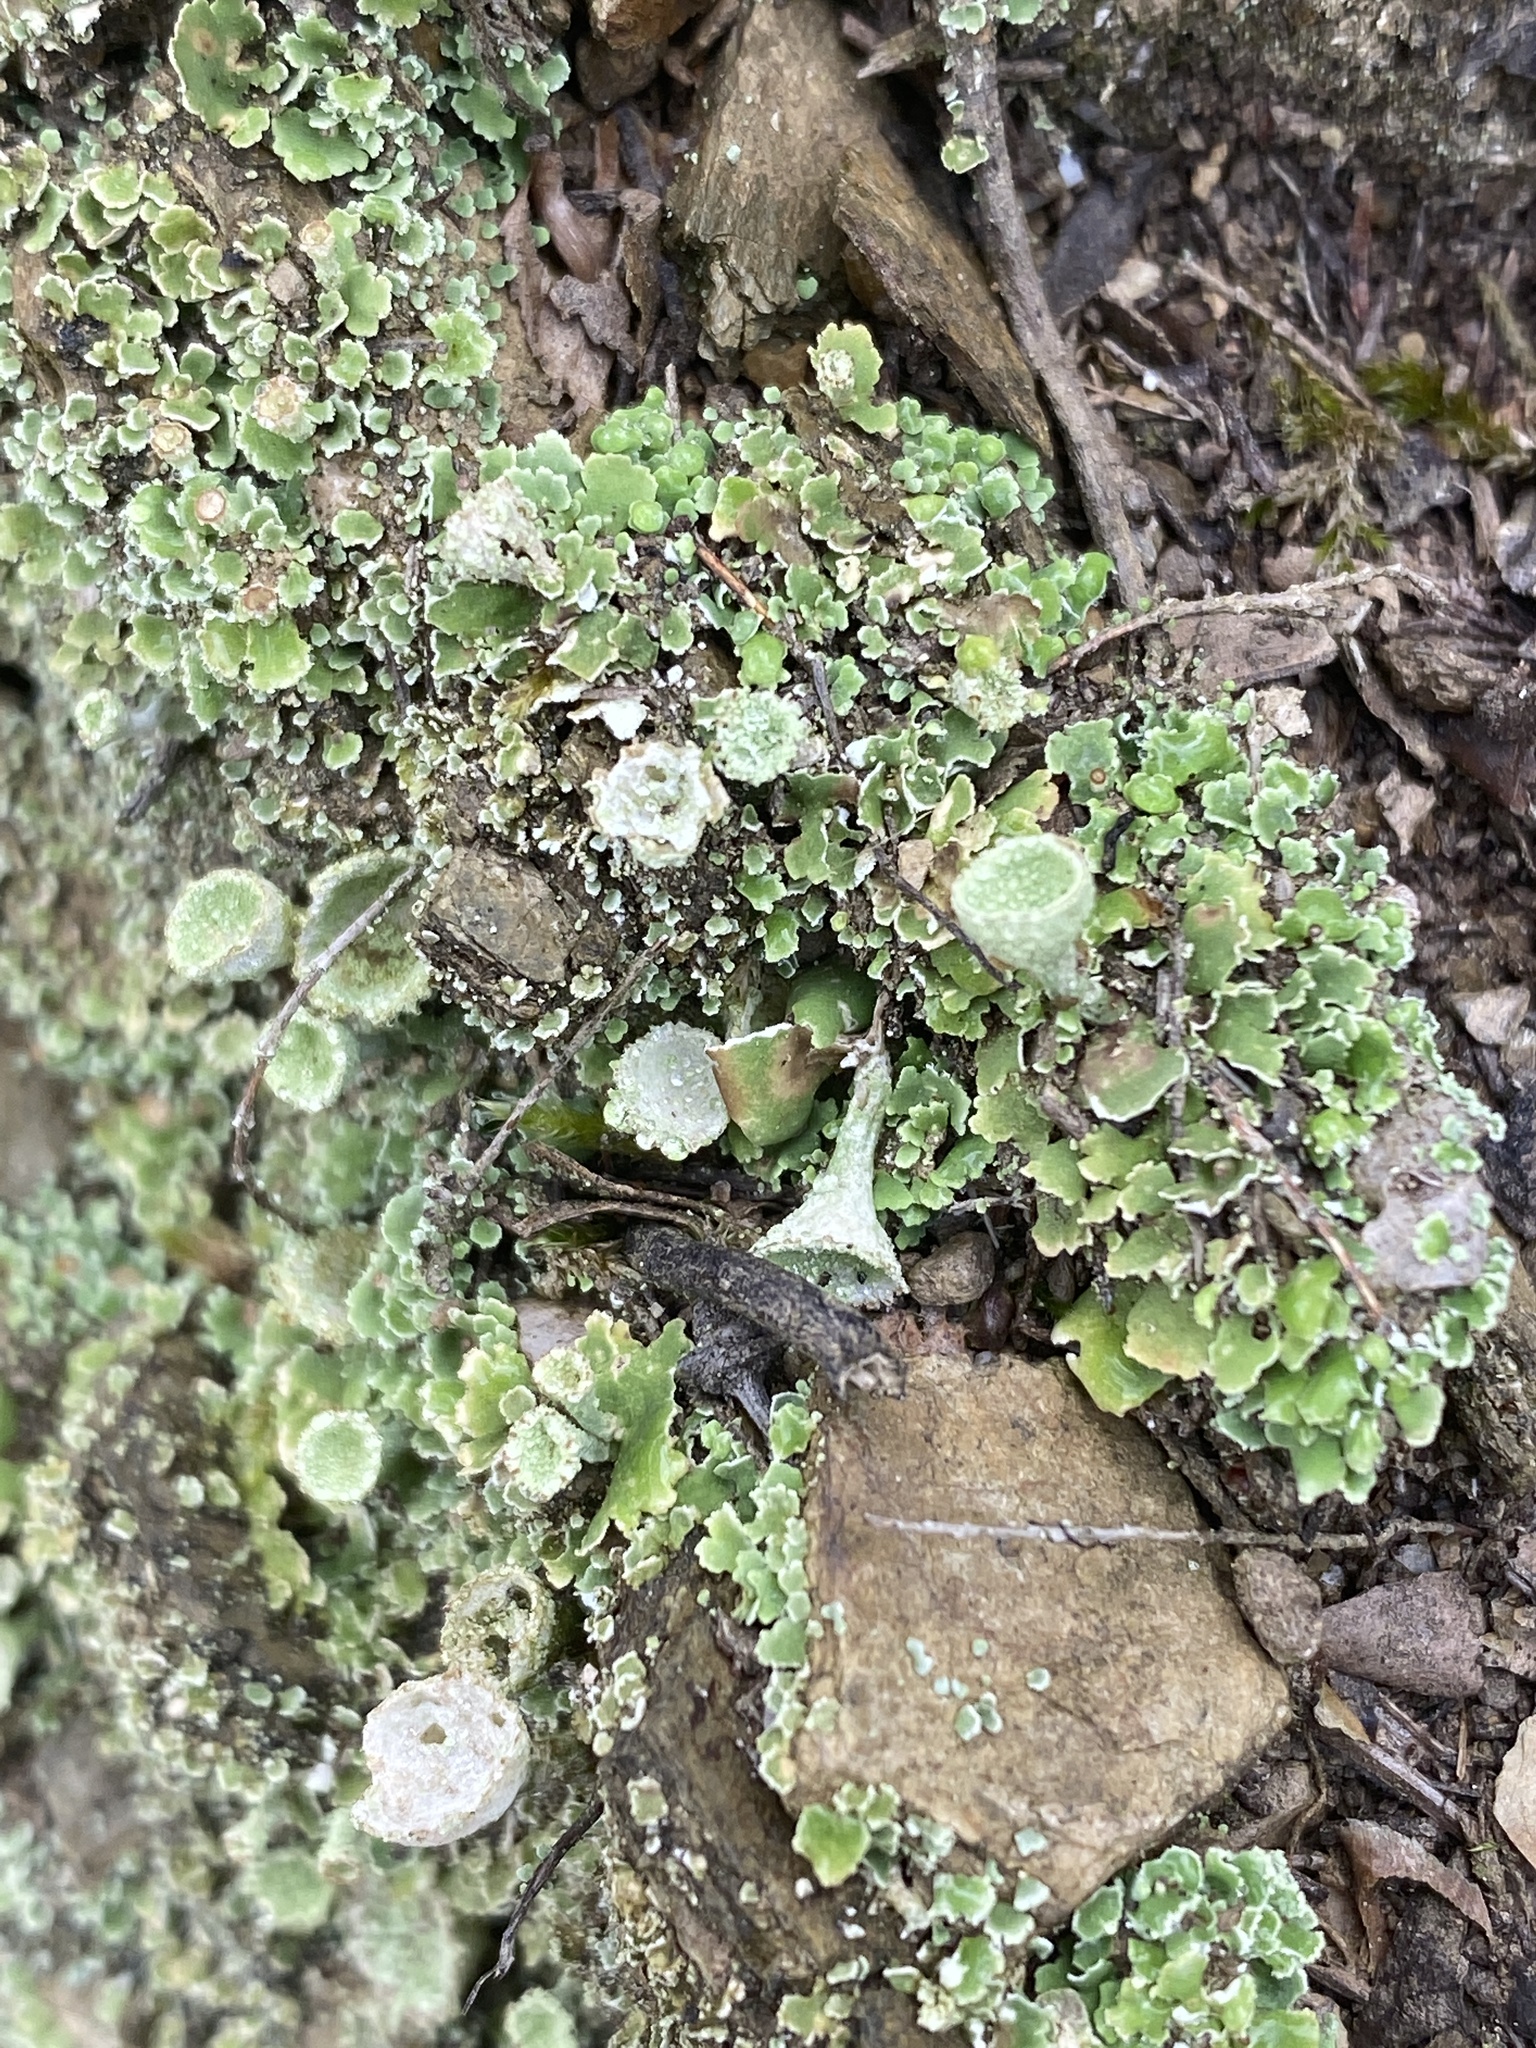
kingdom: Fungi
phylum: Ascomycota
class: Lecanoromycetes
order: Lecanorales
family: Cladoniaceae
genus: Cladonia
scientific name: Cladonia pyxidata
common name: Pebbled pixie cup
